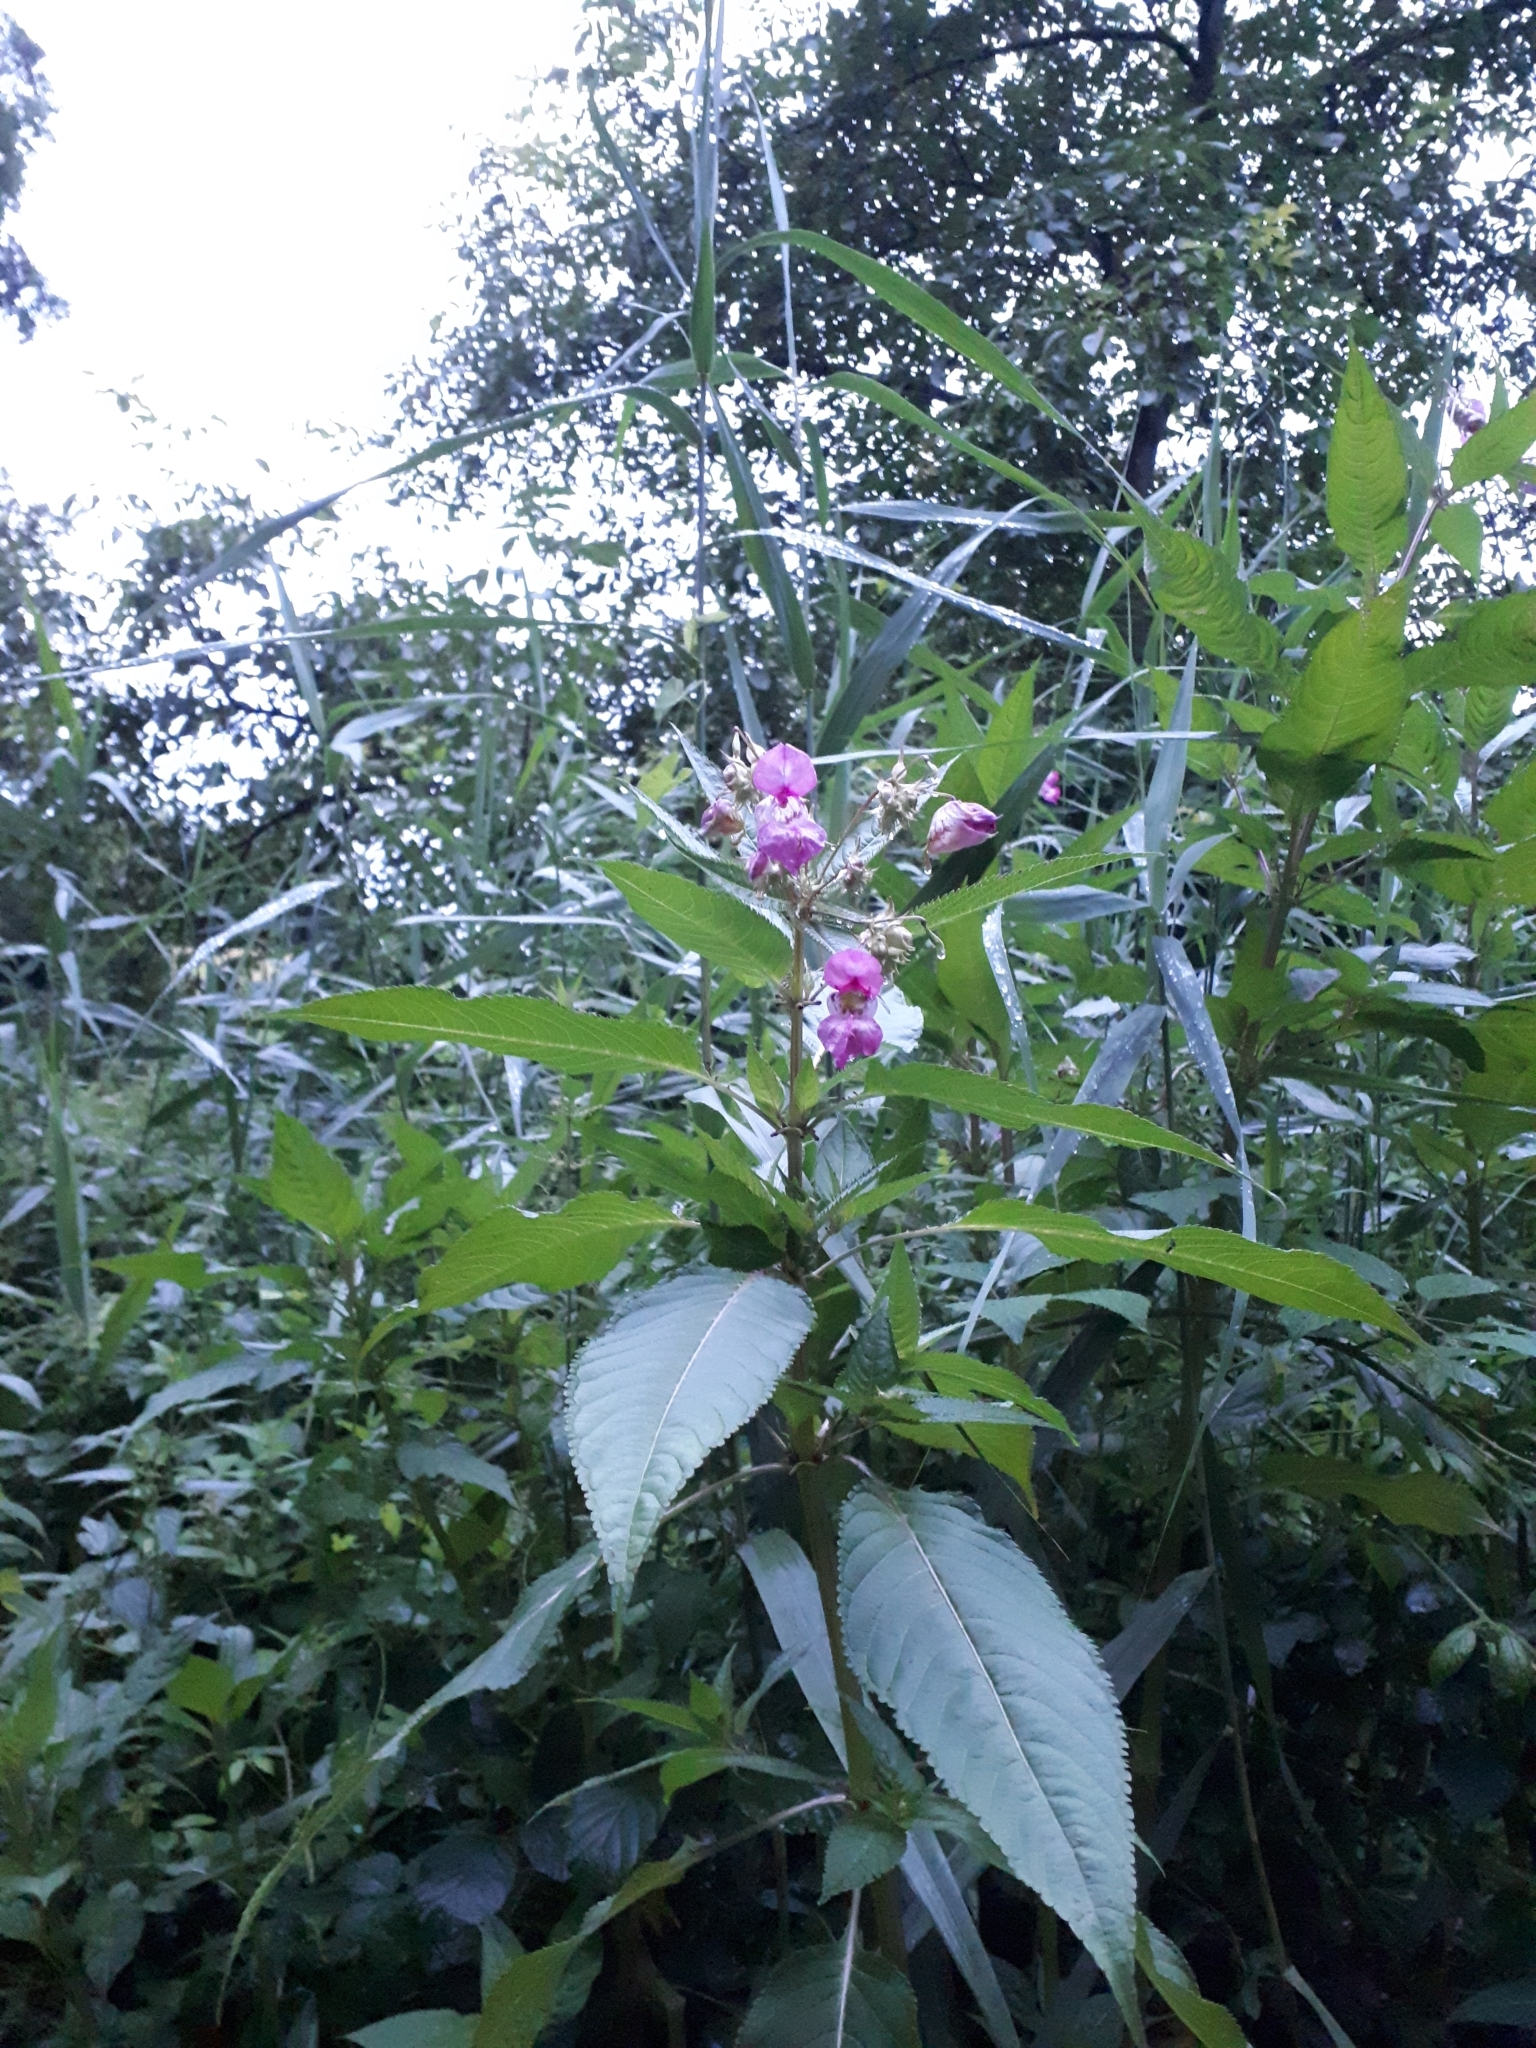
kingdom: Plantae
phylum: Tracheophyta
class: Magnoliopsida
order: Ericales
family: Balsaminaceae
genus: Impatiens
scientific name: Impatiens glandulifera
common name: Himalayan balsam
